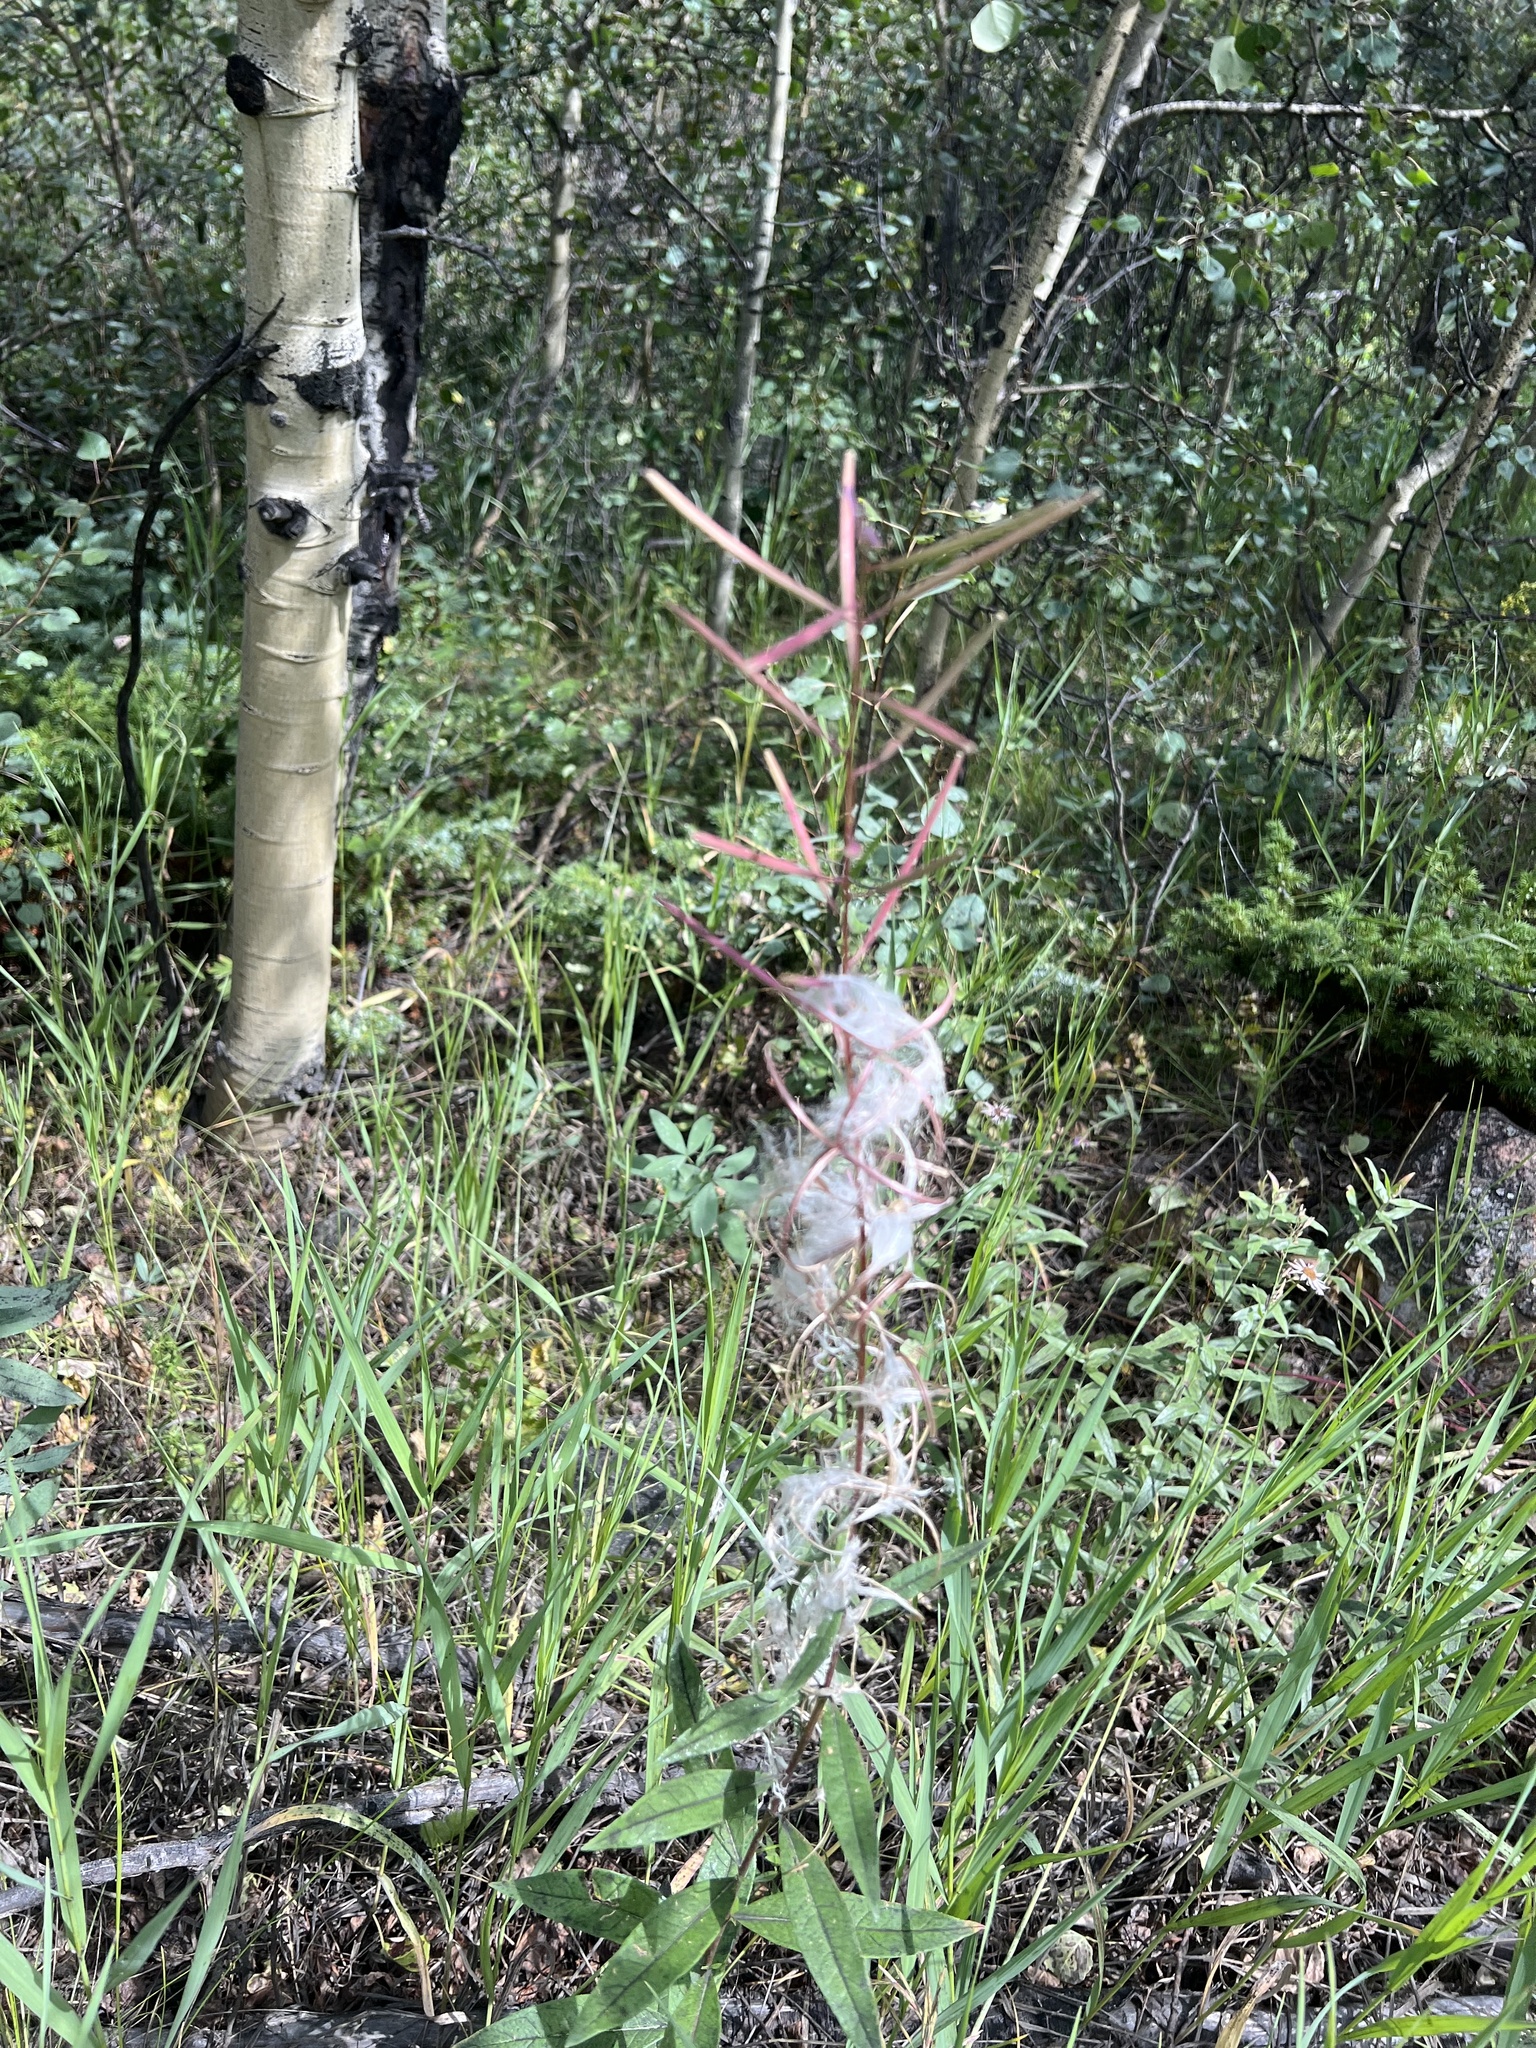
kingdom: Plantae
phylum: Tracheophyta
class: Magnoliopsida
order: Myrtales
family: Onagraceae
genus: Chamaenerion
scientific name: Chamaenerion angustifolium
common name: Fireweed
